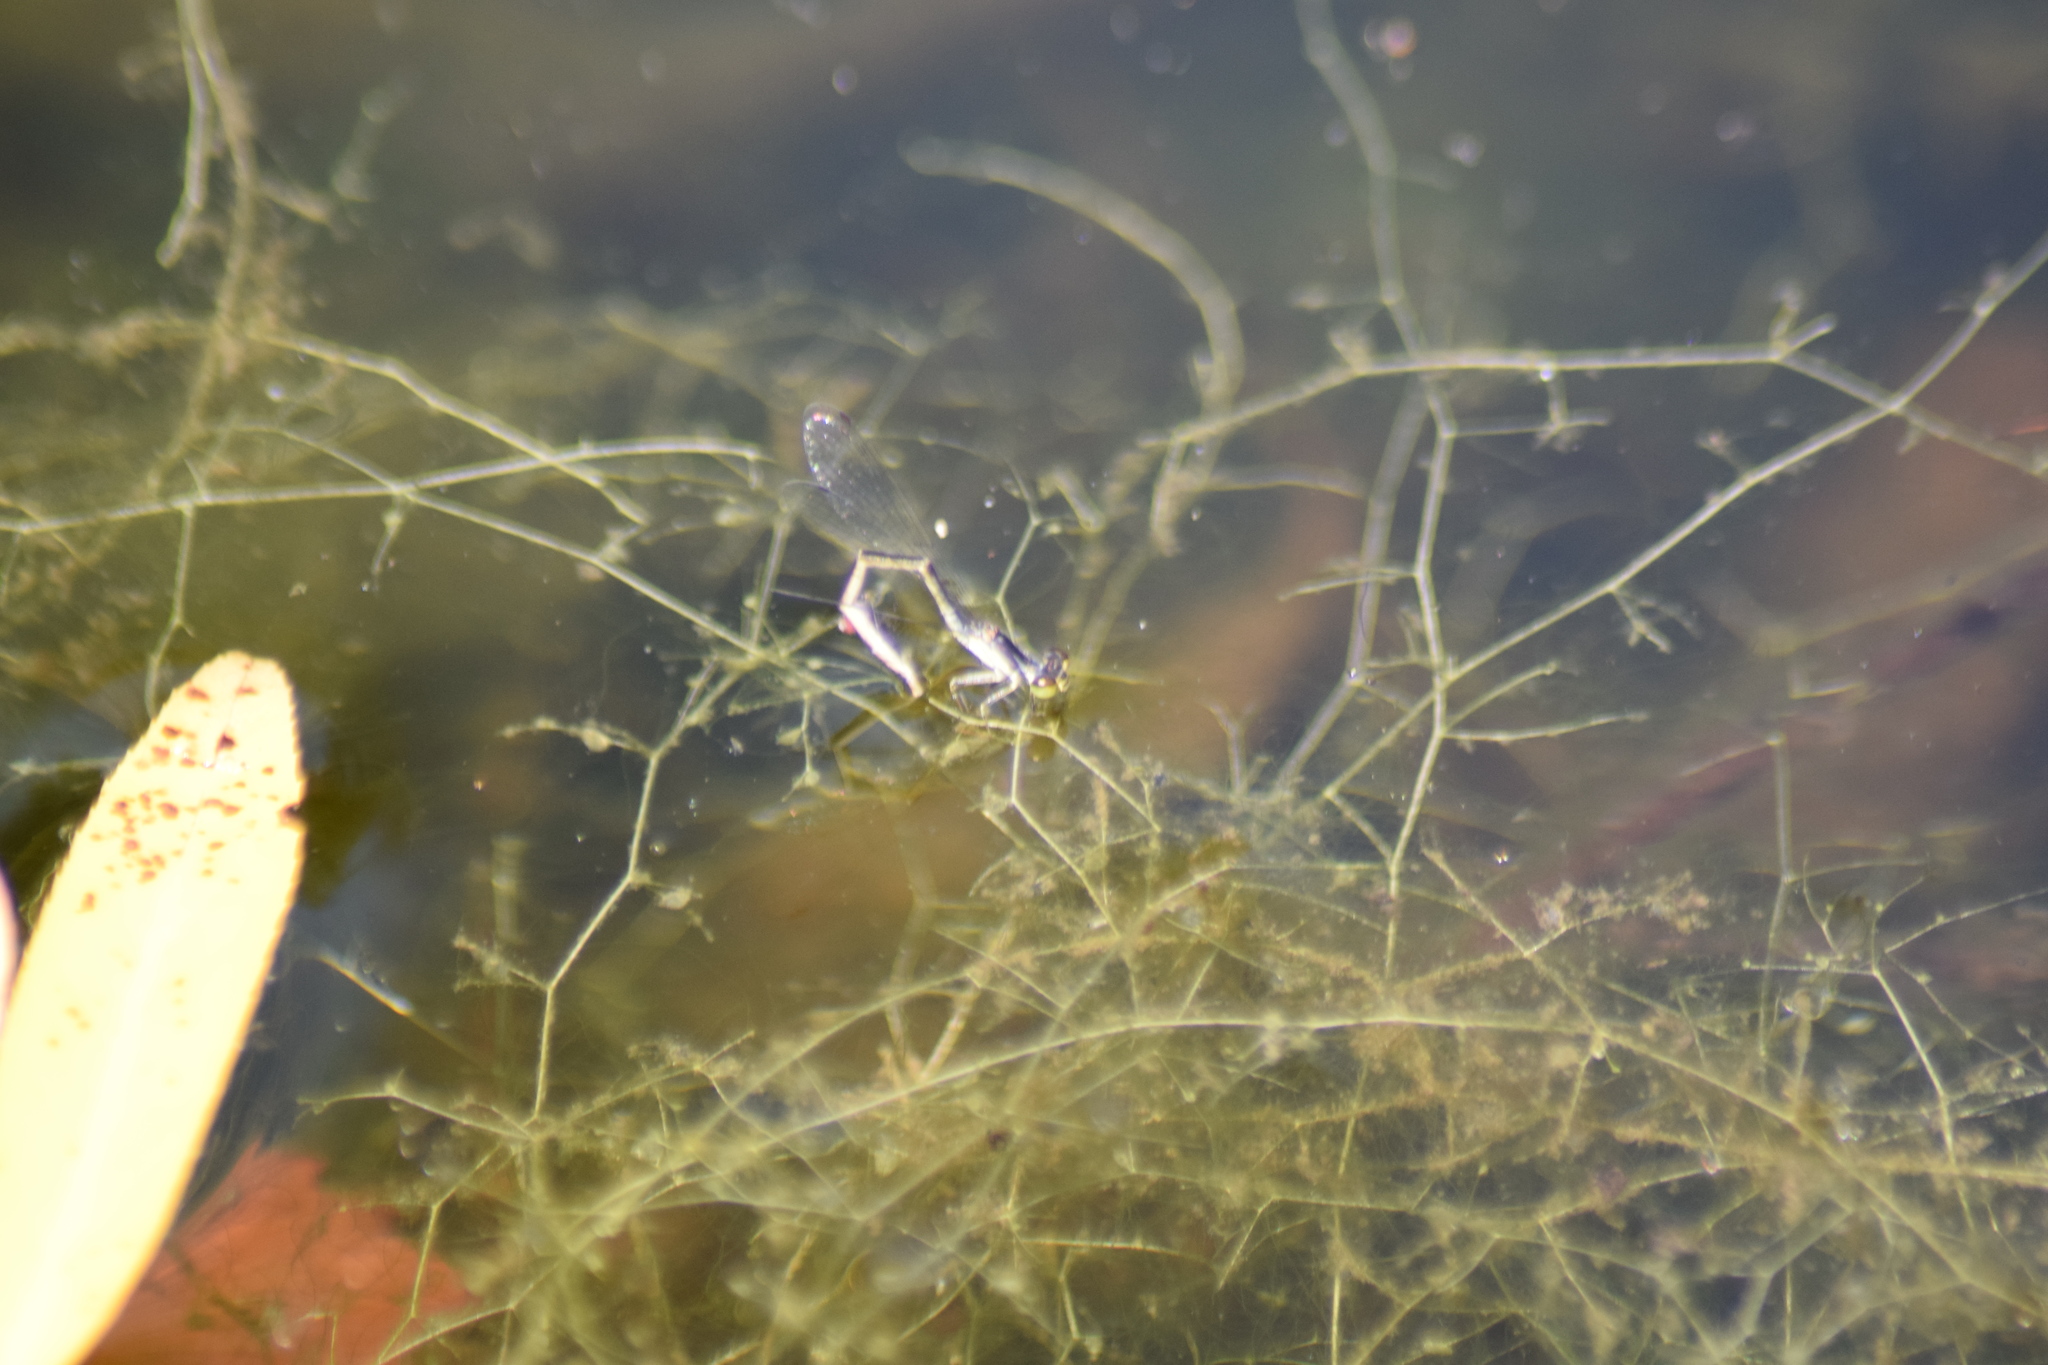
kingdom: Animalia
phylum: Arthropoda
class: Insecta
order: Odonata
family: Coenagrionidae
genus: Ischnura
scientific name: Ischnura posita
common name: Fragile forktail
